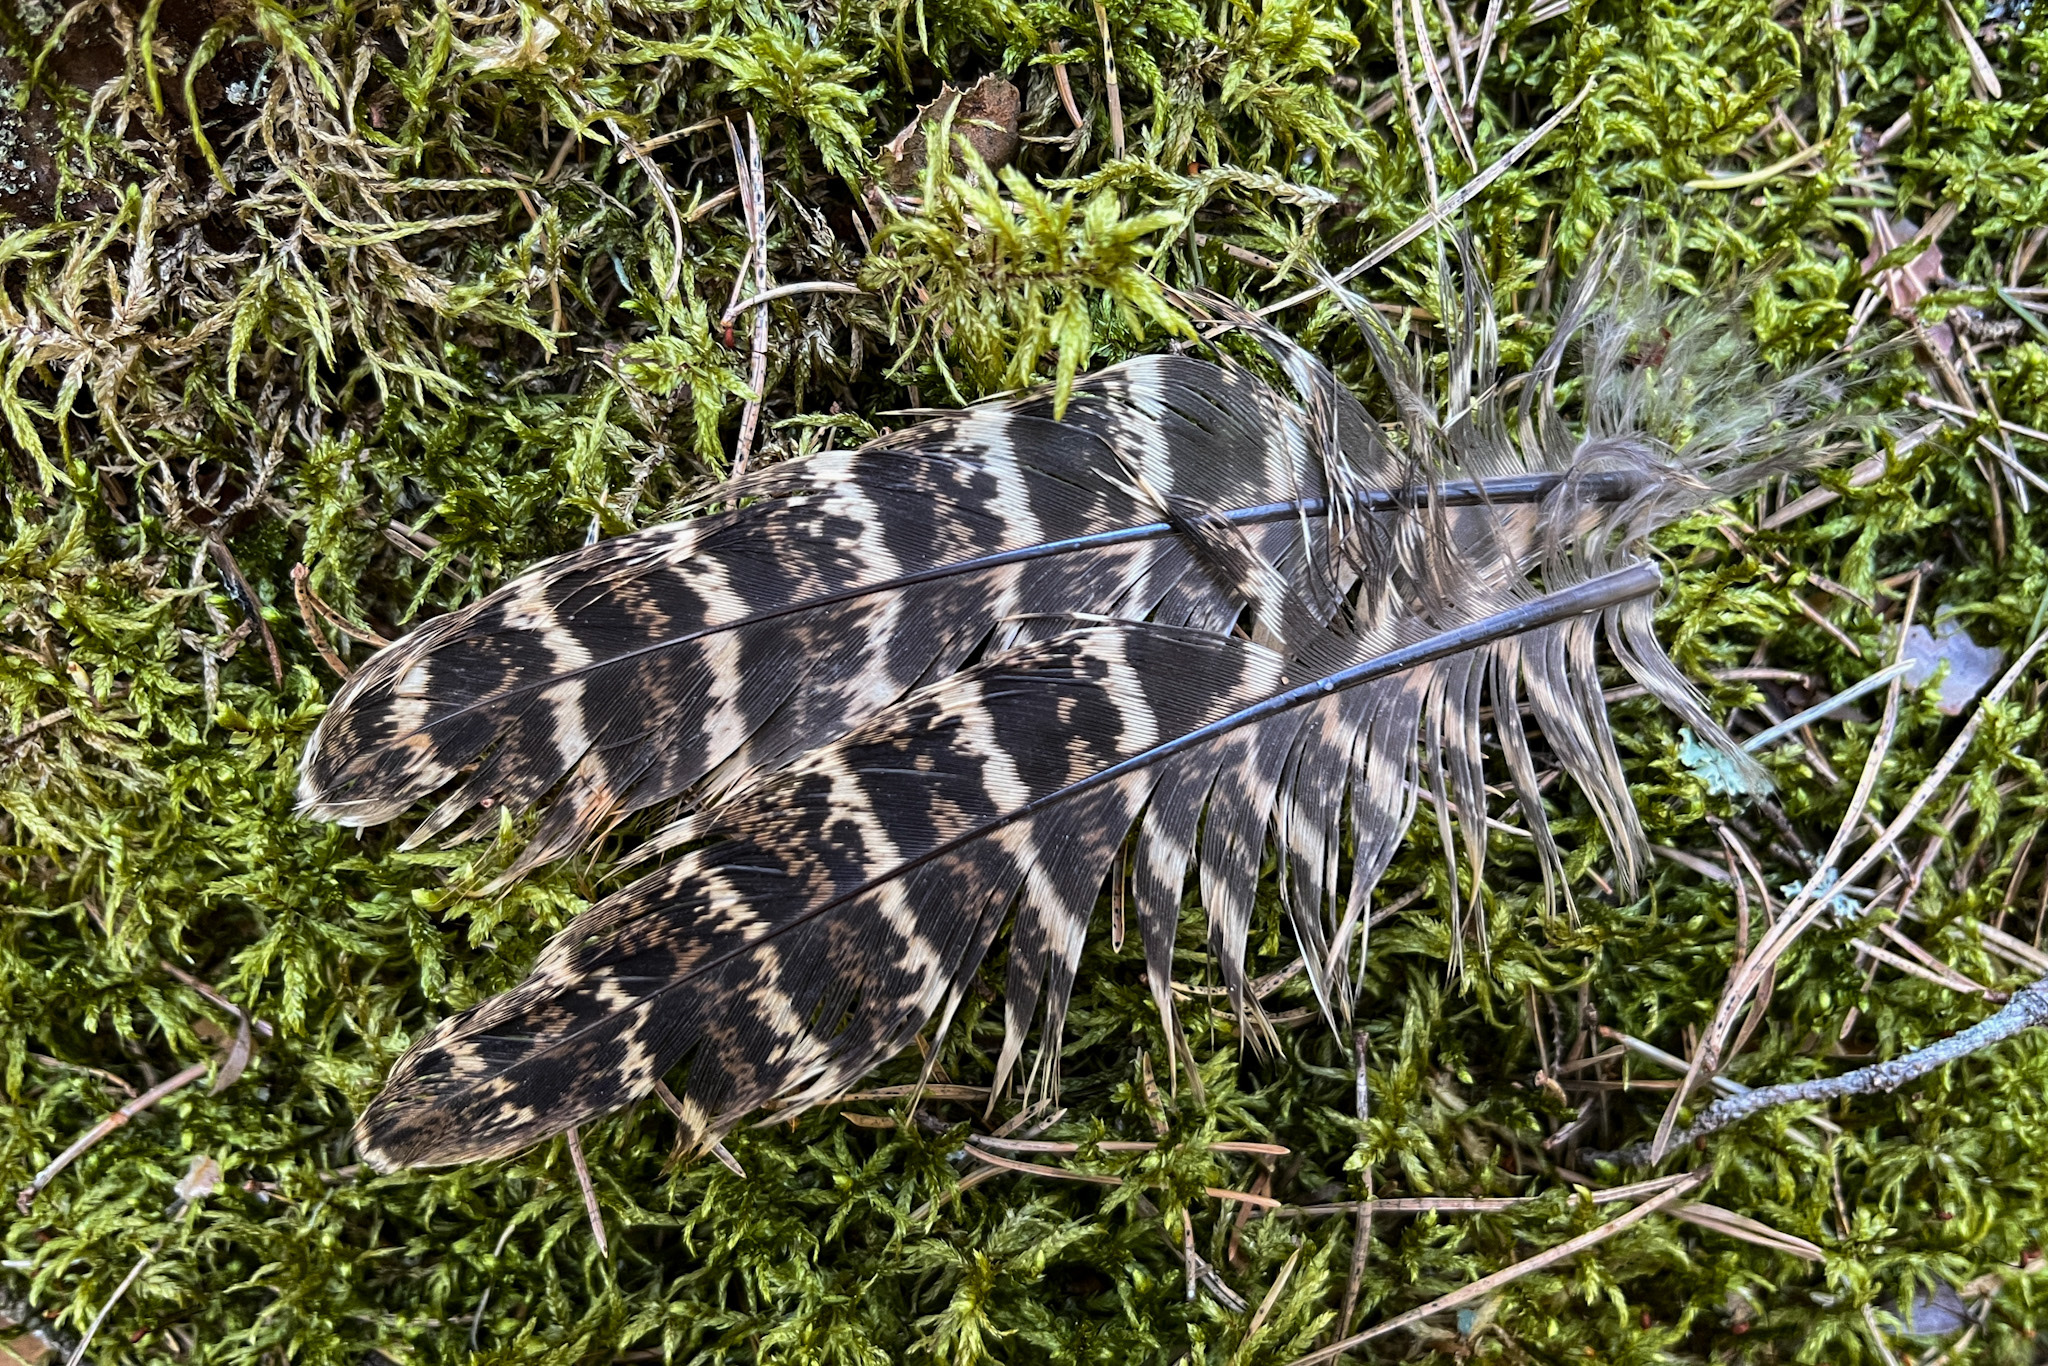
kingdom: Animalia
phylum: Chordata
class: Aves
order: Galliformes
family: Phasianidae
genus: Phasianus
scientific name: Phasianus colchicus
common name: Common pheasant
